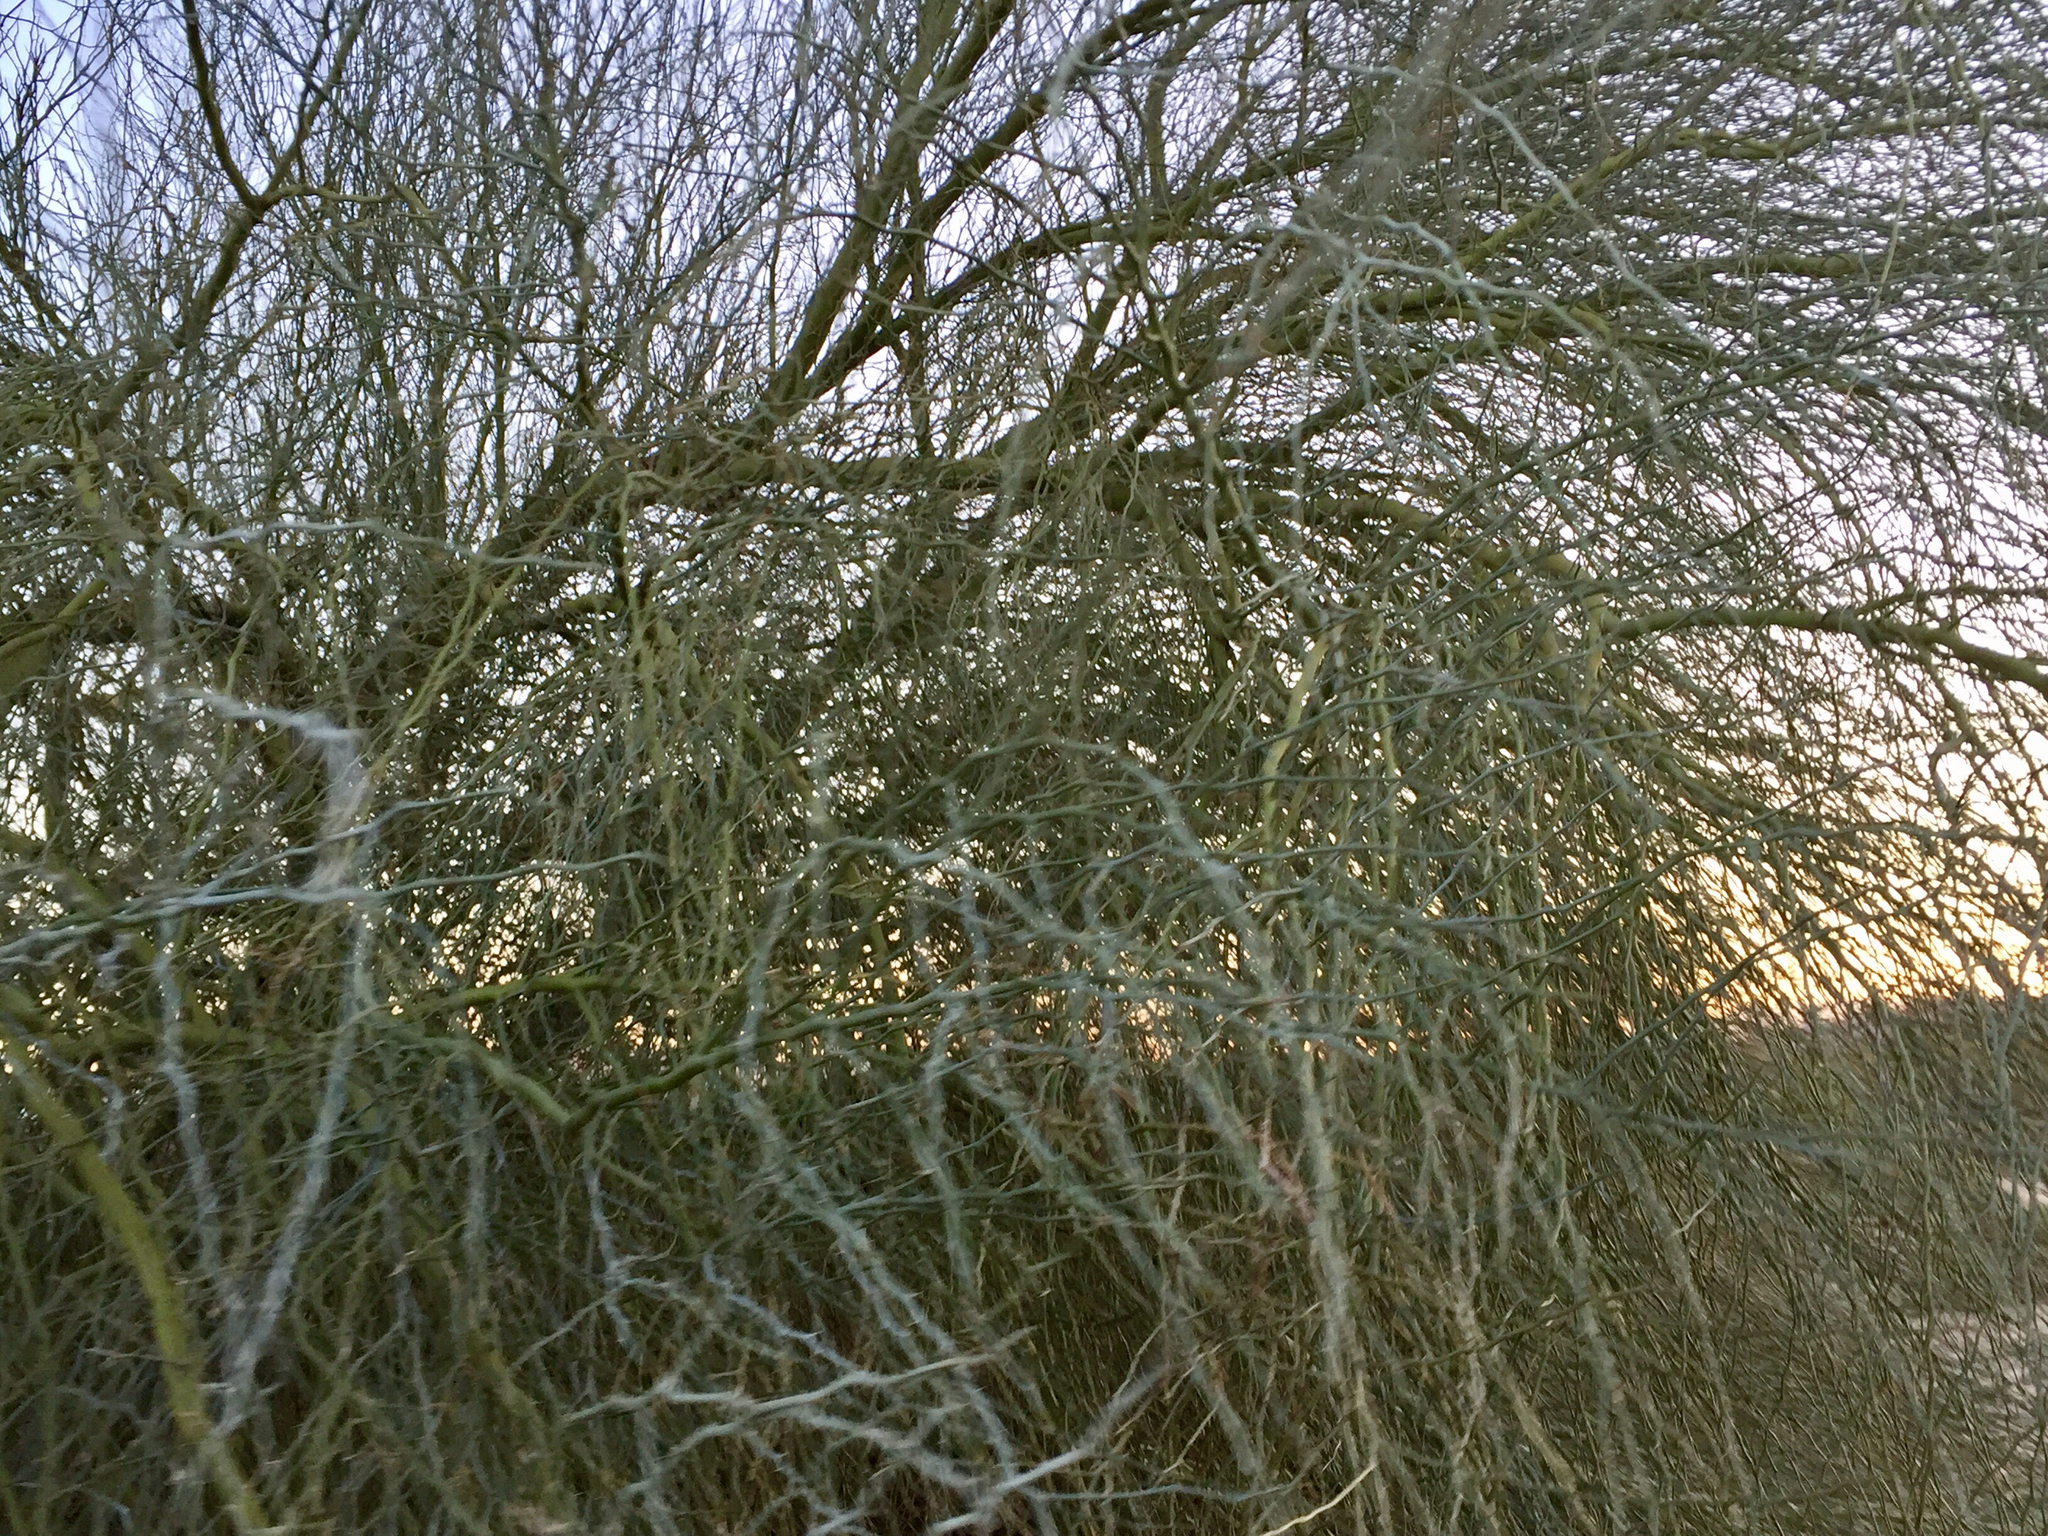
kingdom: Plantae
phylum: Tracheophyta
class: Magnoliopsida
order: Fabales
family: Fabaceae
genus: Parkinsonia
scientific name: Parkinsonia florida
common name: Blue paloverde
